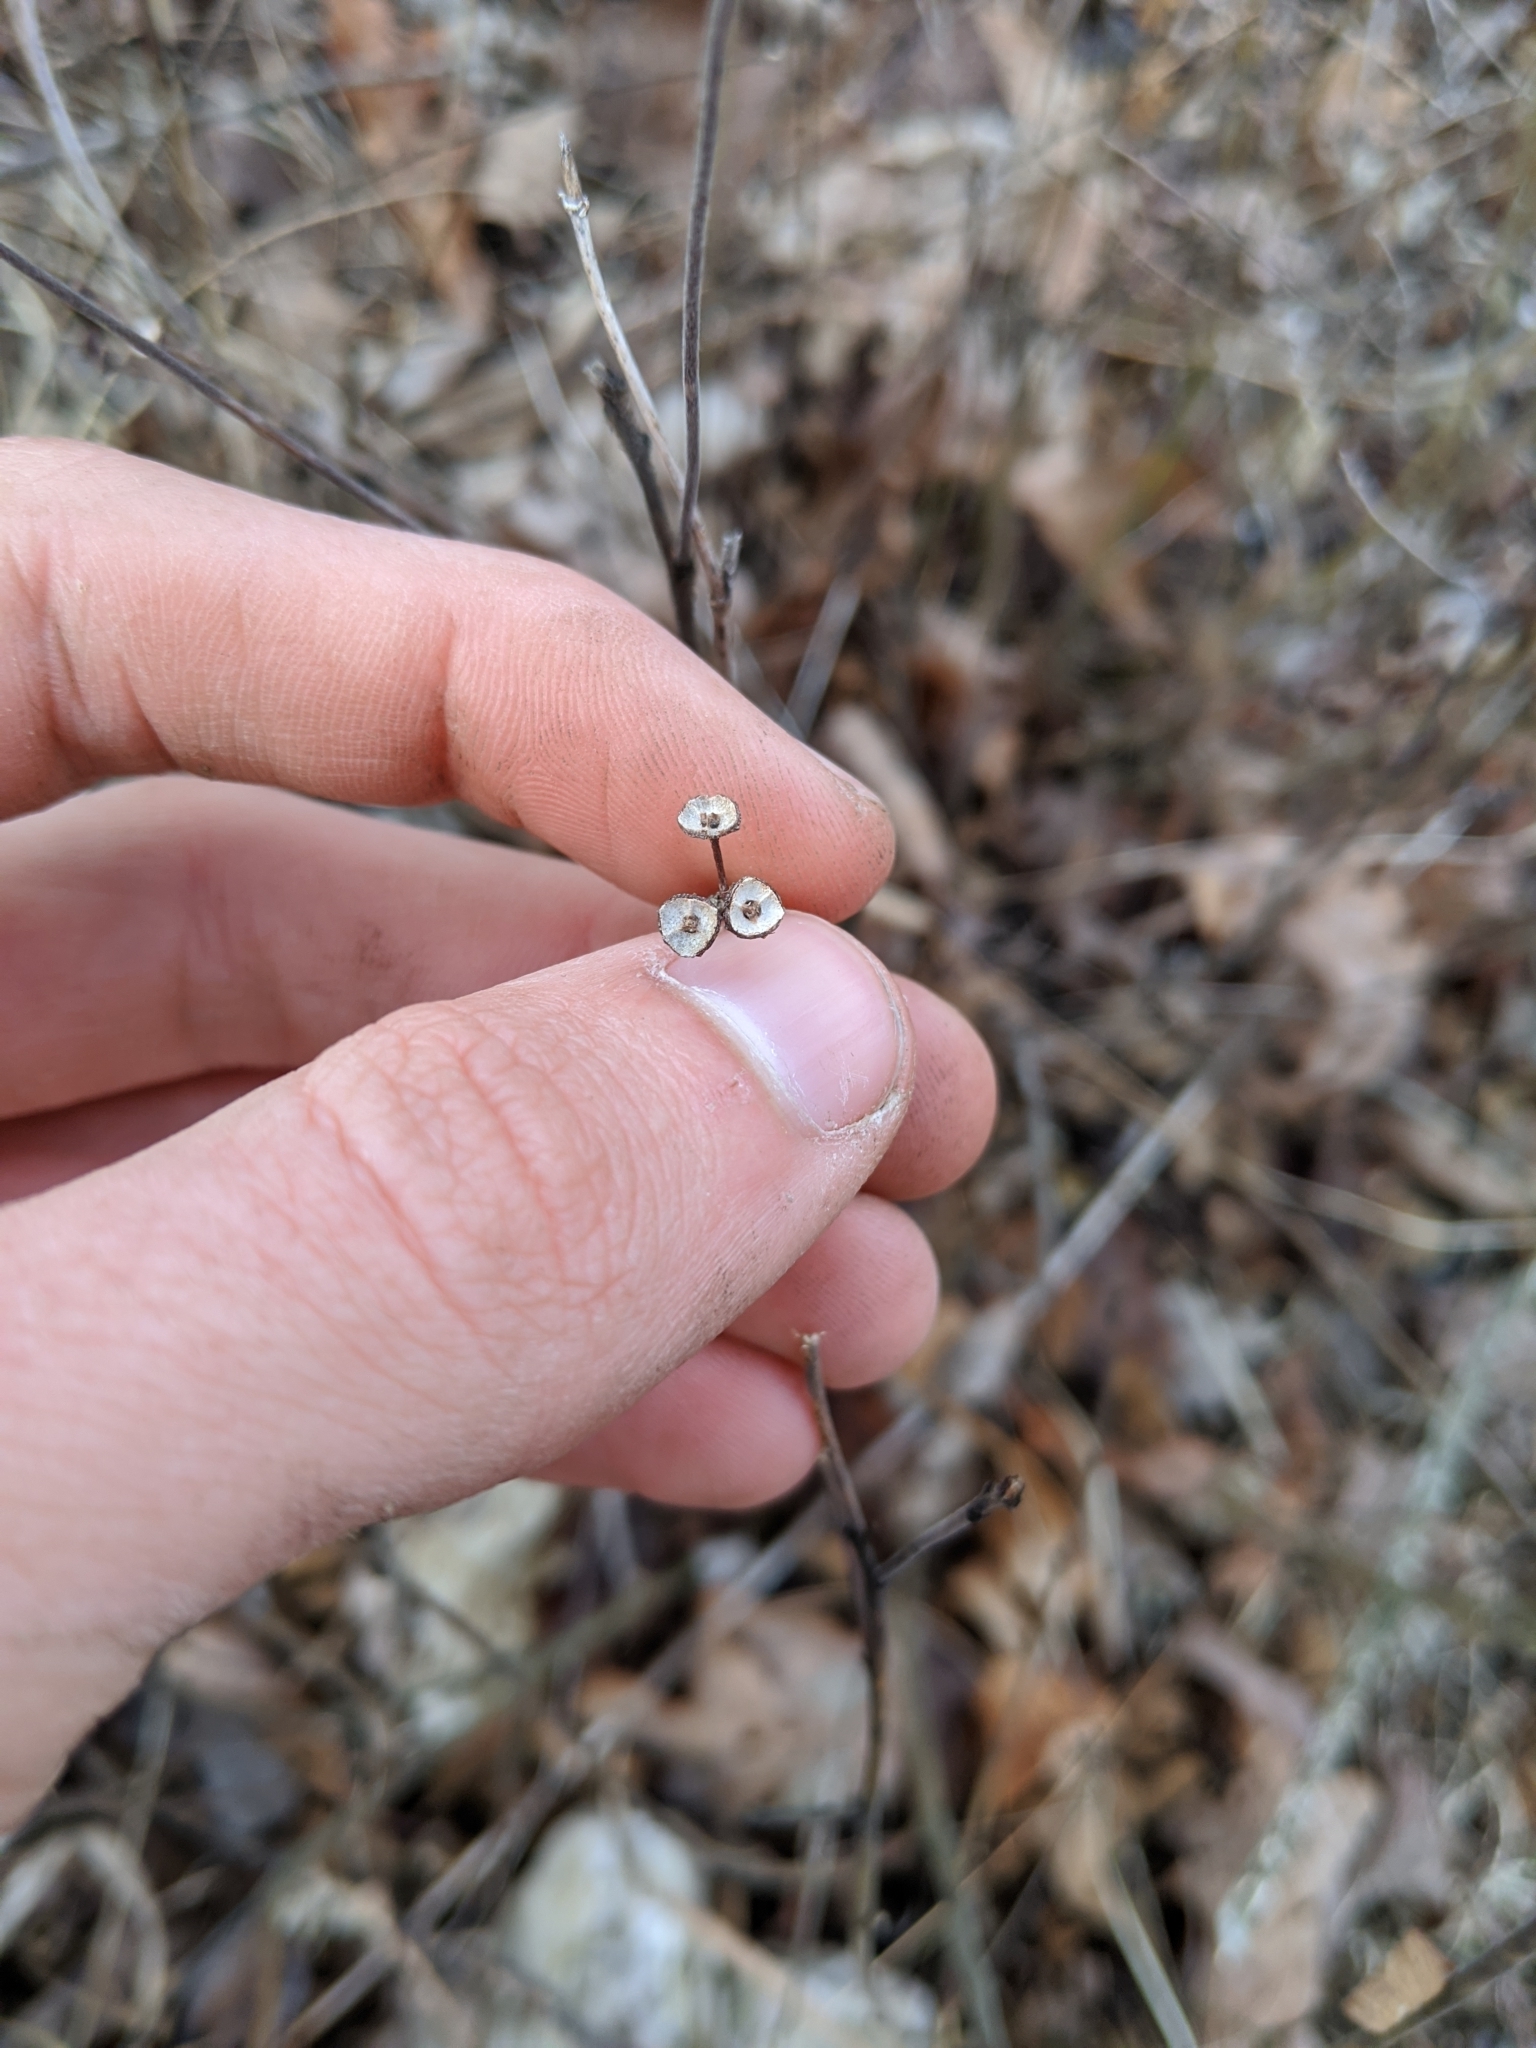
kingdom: Plantae
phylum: Tracheophyta
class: Magnoliopsida
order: Rosales
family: Rhamnaceae
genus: Ceanothus
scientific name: Ceanothus americanus
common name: Redroot
